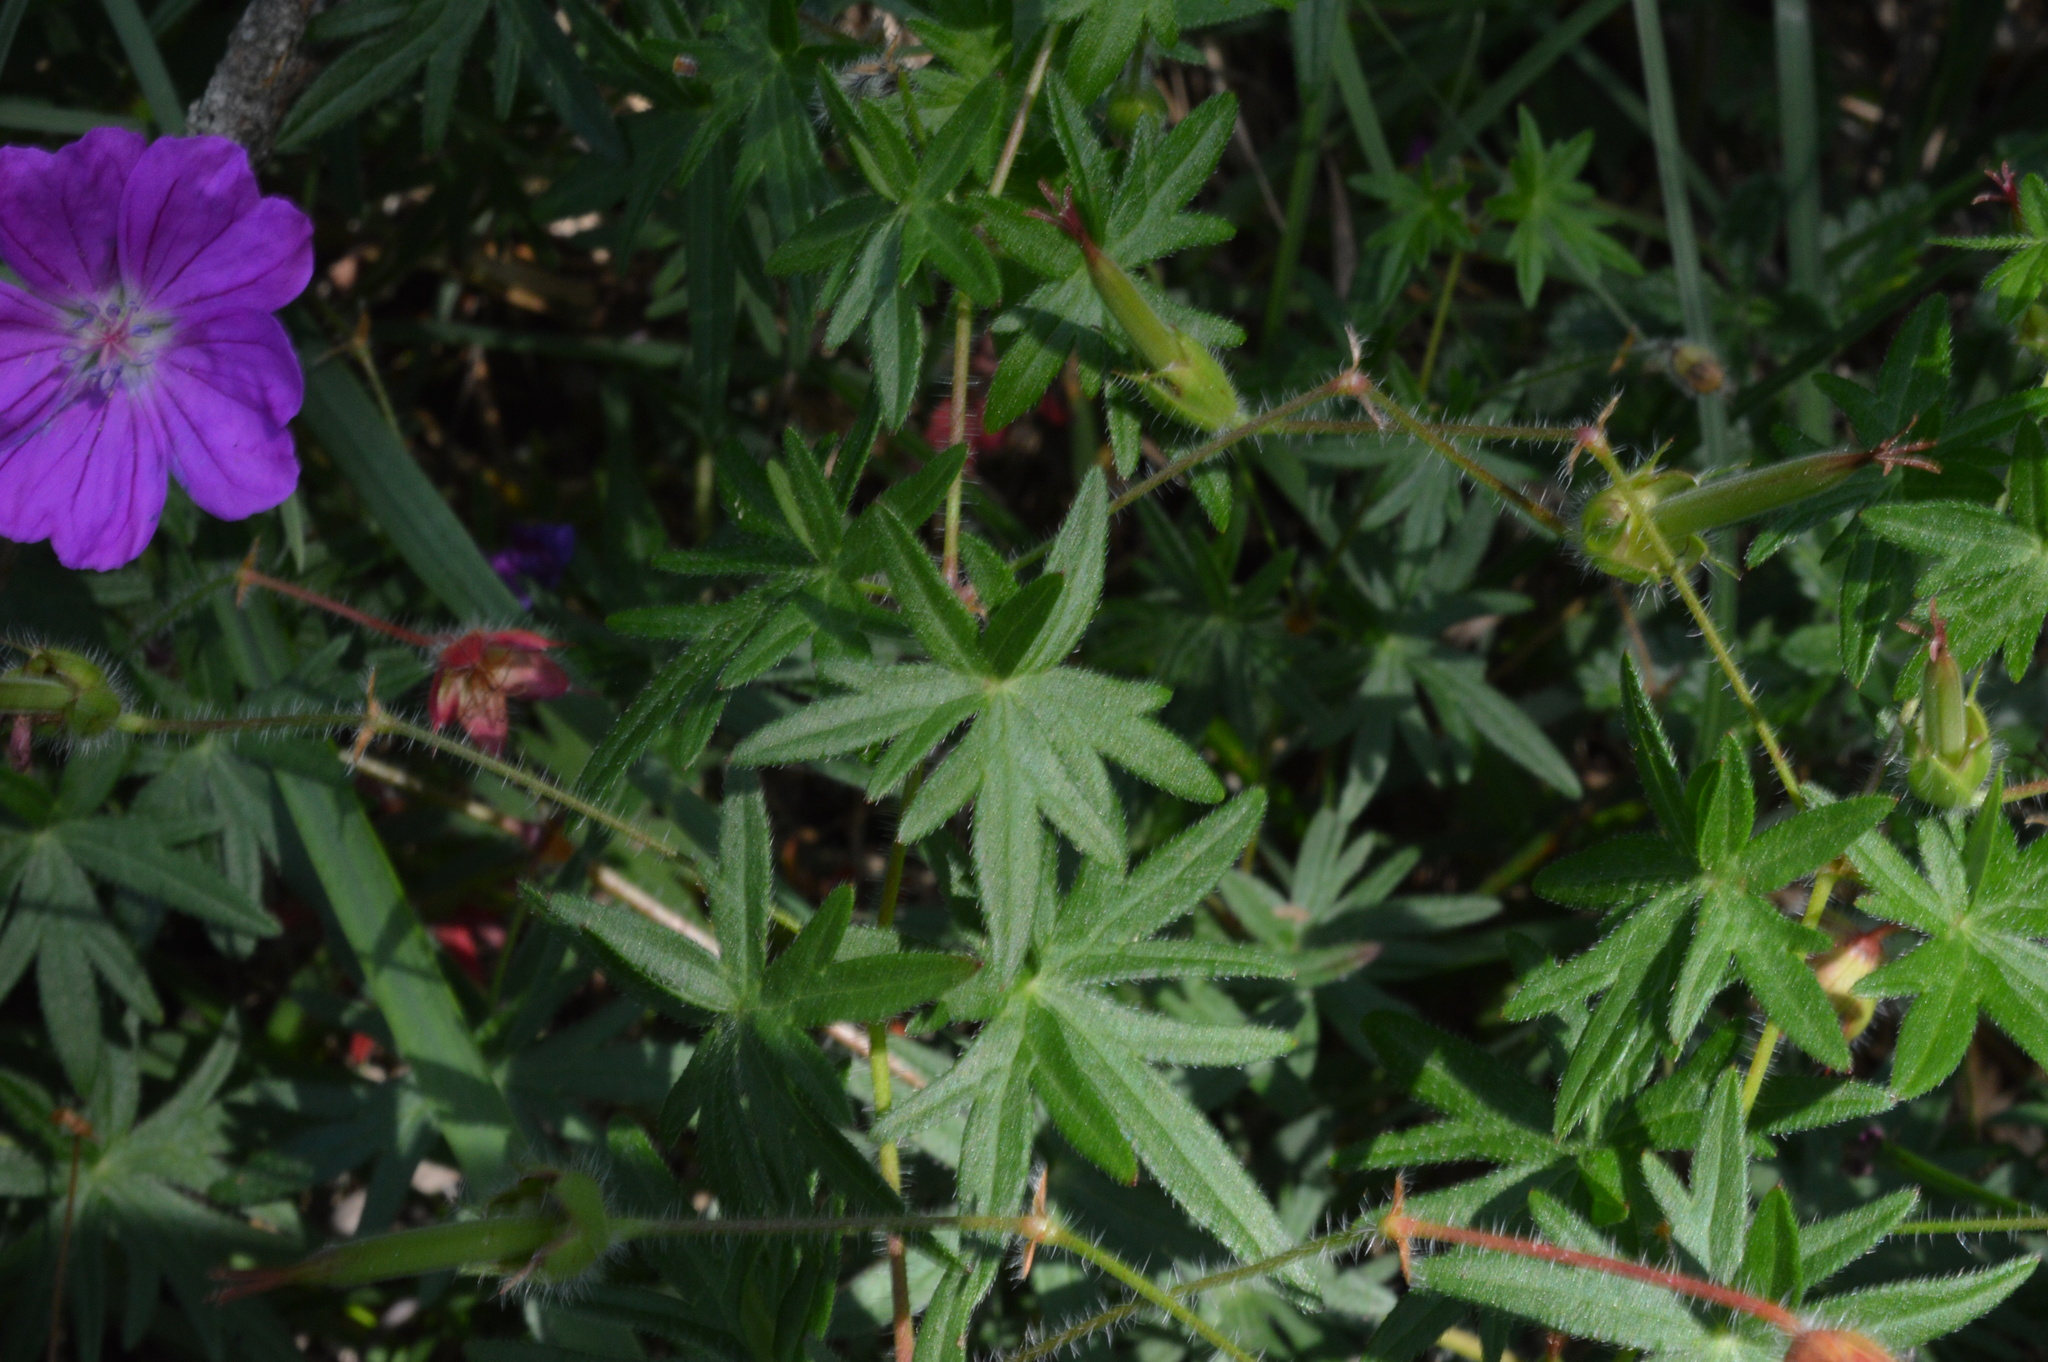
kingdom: Plantae
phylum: Tracheophyta
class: Magnoliopsida
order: Geraniales
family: Geraniaceae
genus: Geranium
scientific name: Geranium sanguineum
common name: Bloody crane's-bill
